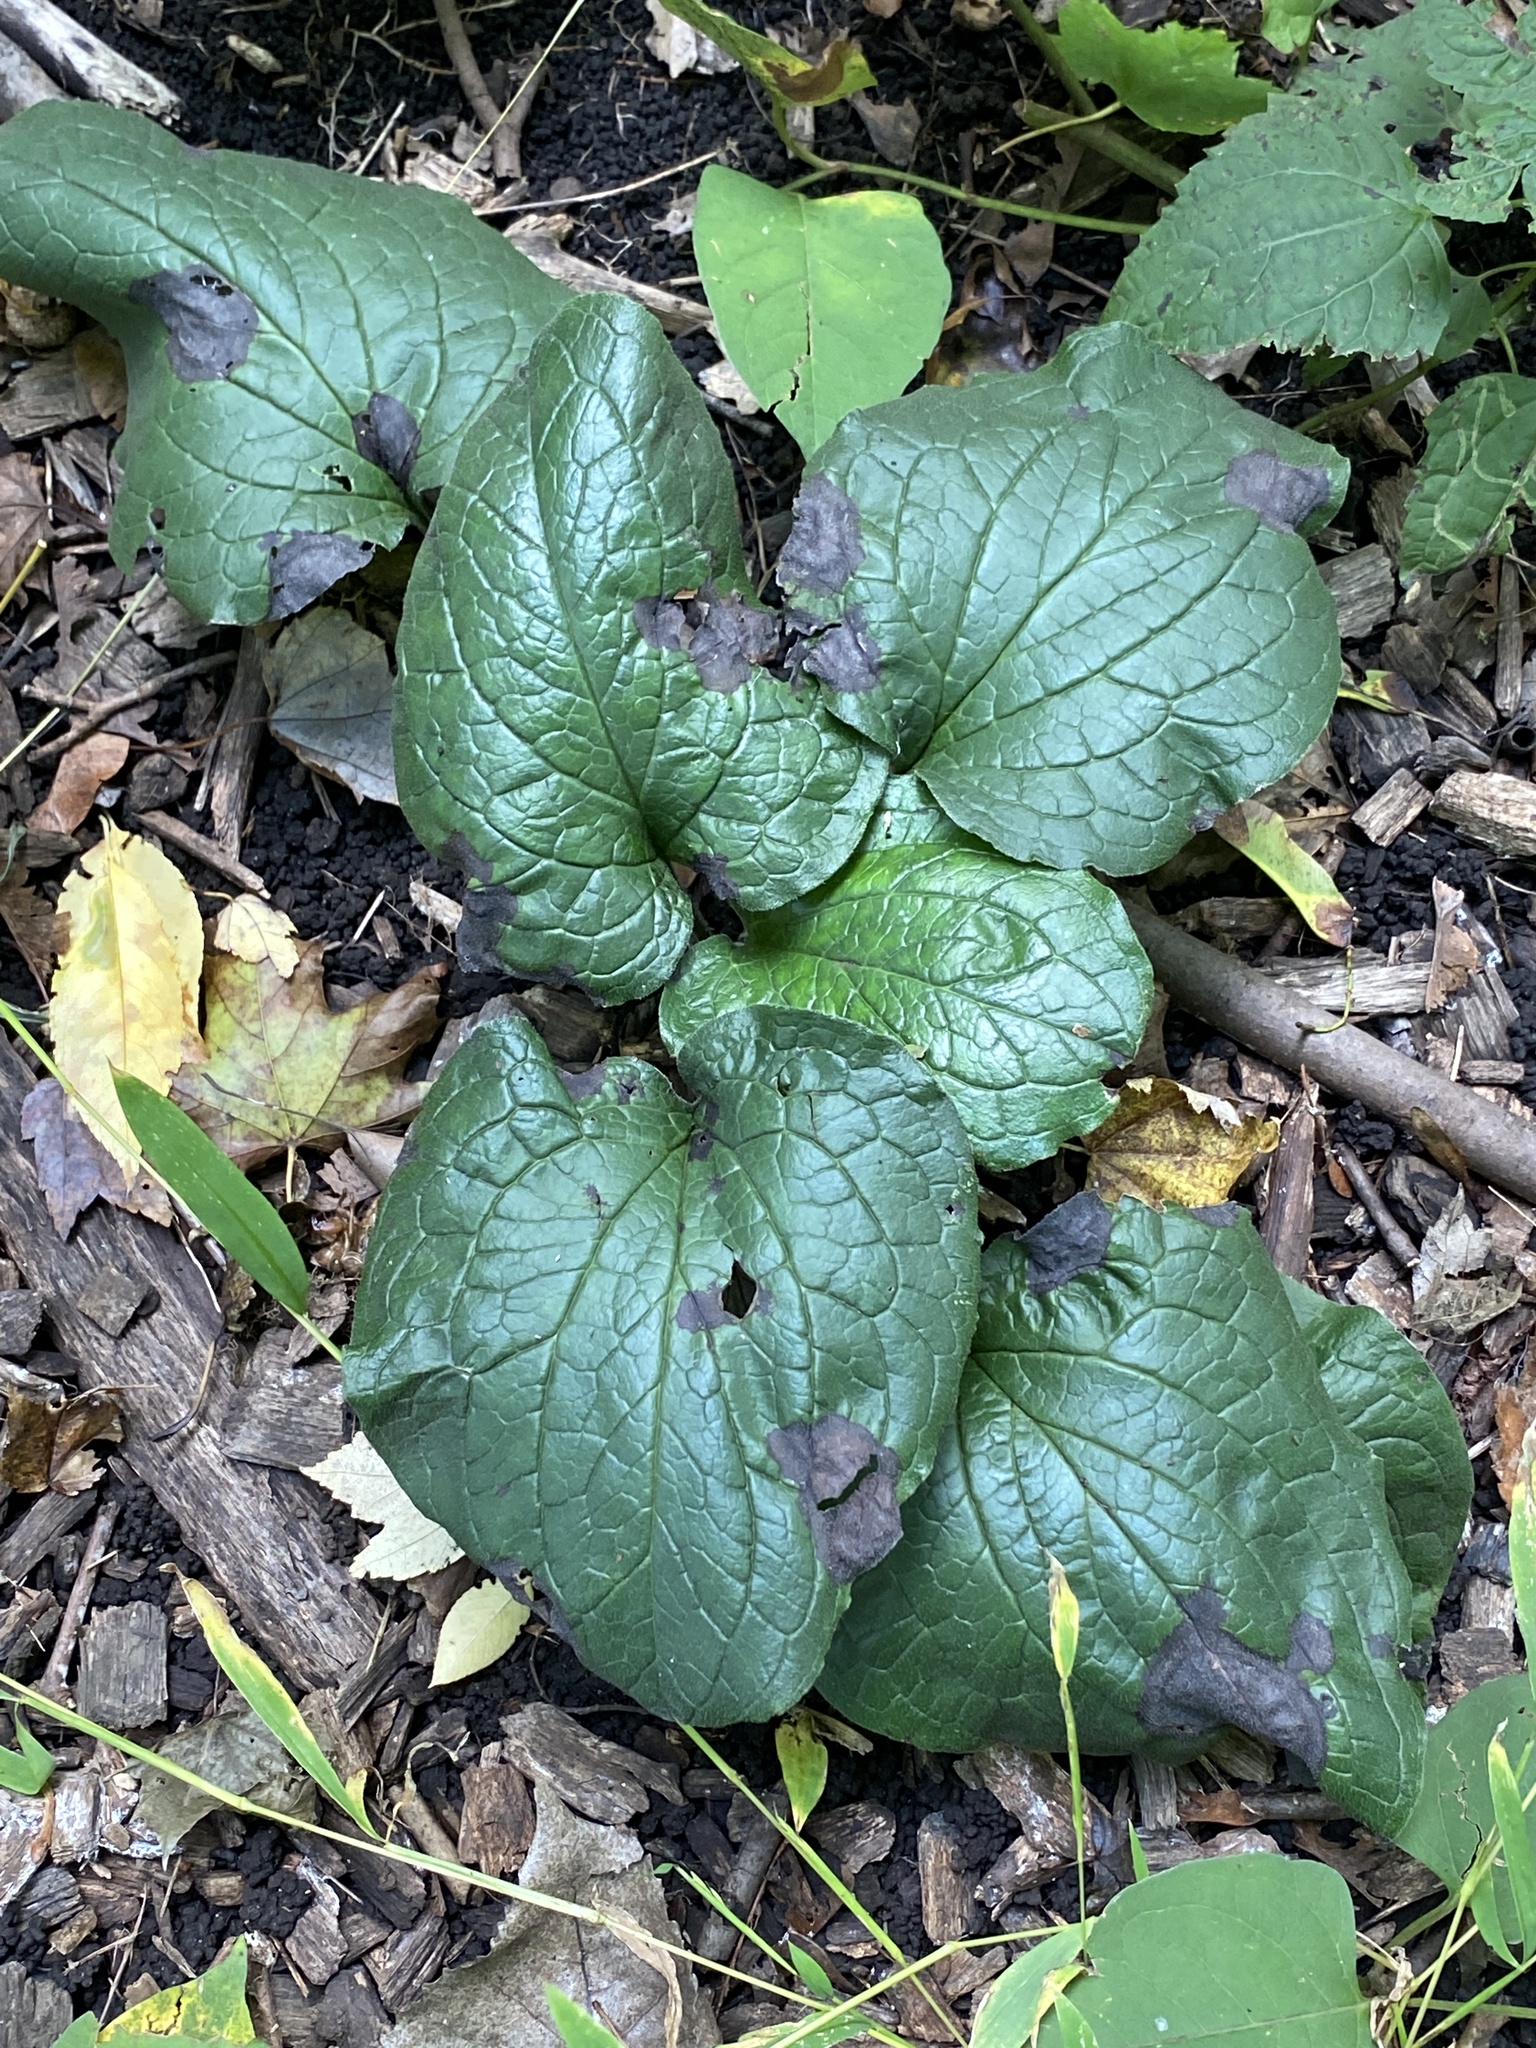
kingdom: Plantae
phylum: Tracheophyta
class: Magnoliopsida
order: Boraginales
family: Boraginaceae
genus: Hackelia
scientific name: Hackelia virginiana
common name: Beggar's-lice
